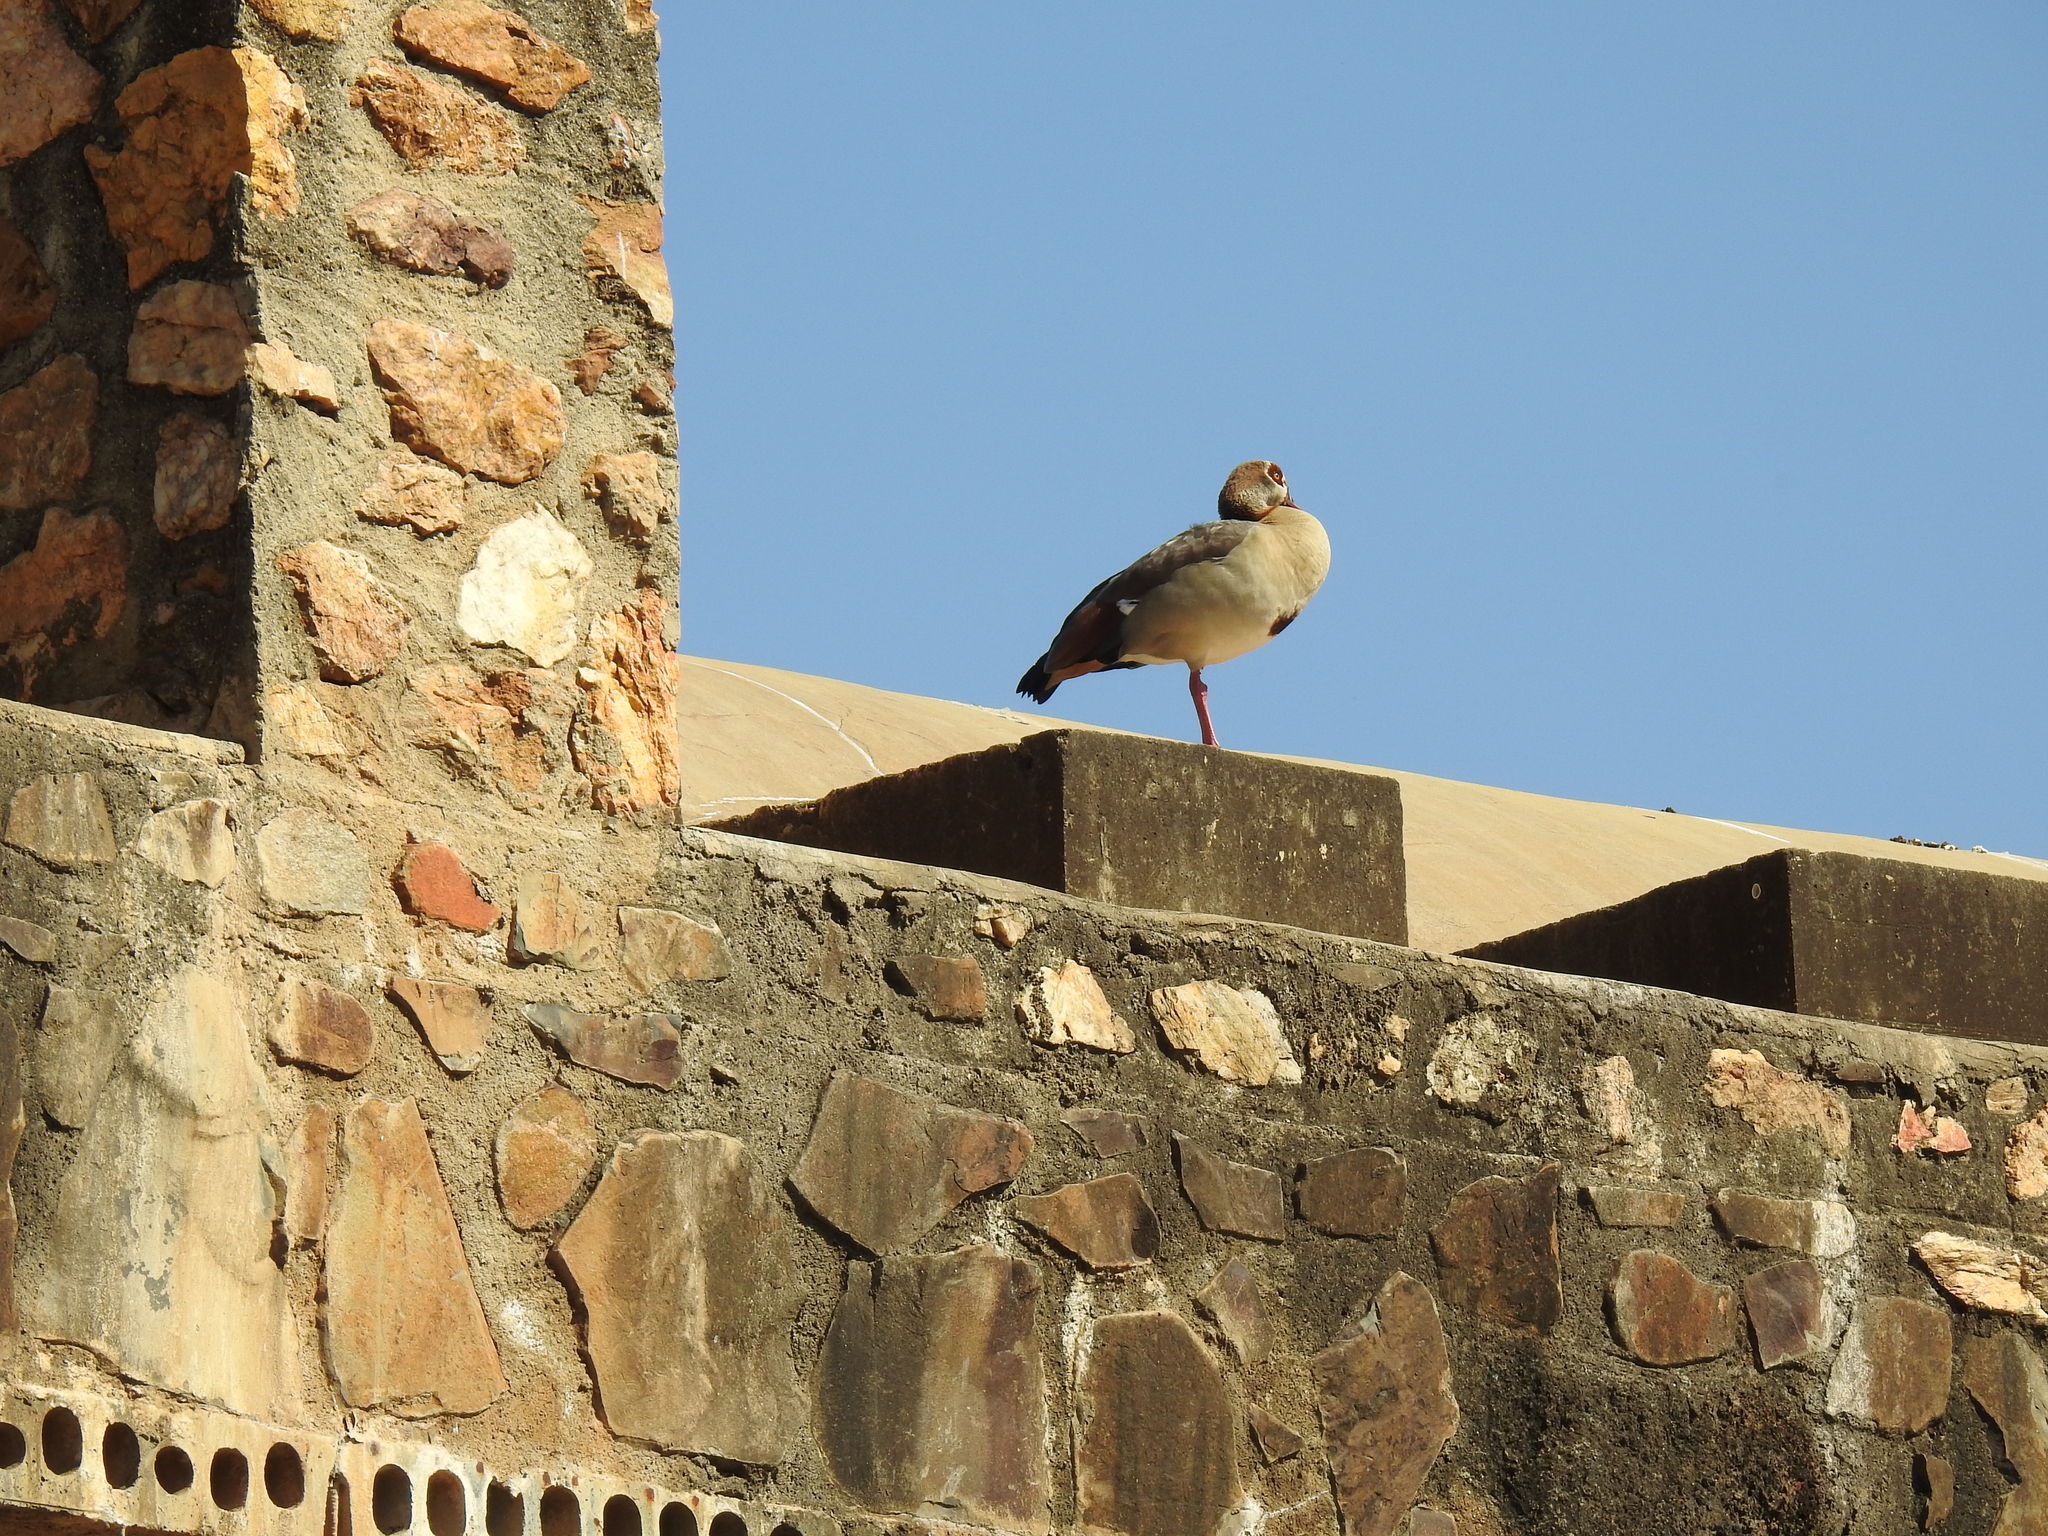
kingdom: Animalia
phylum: Chordata
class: Aves
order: Anseriformes
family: Anatidae
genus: Alopochen
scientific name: Alopochen aegyptiaca
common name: Egyptian goose
